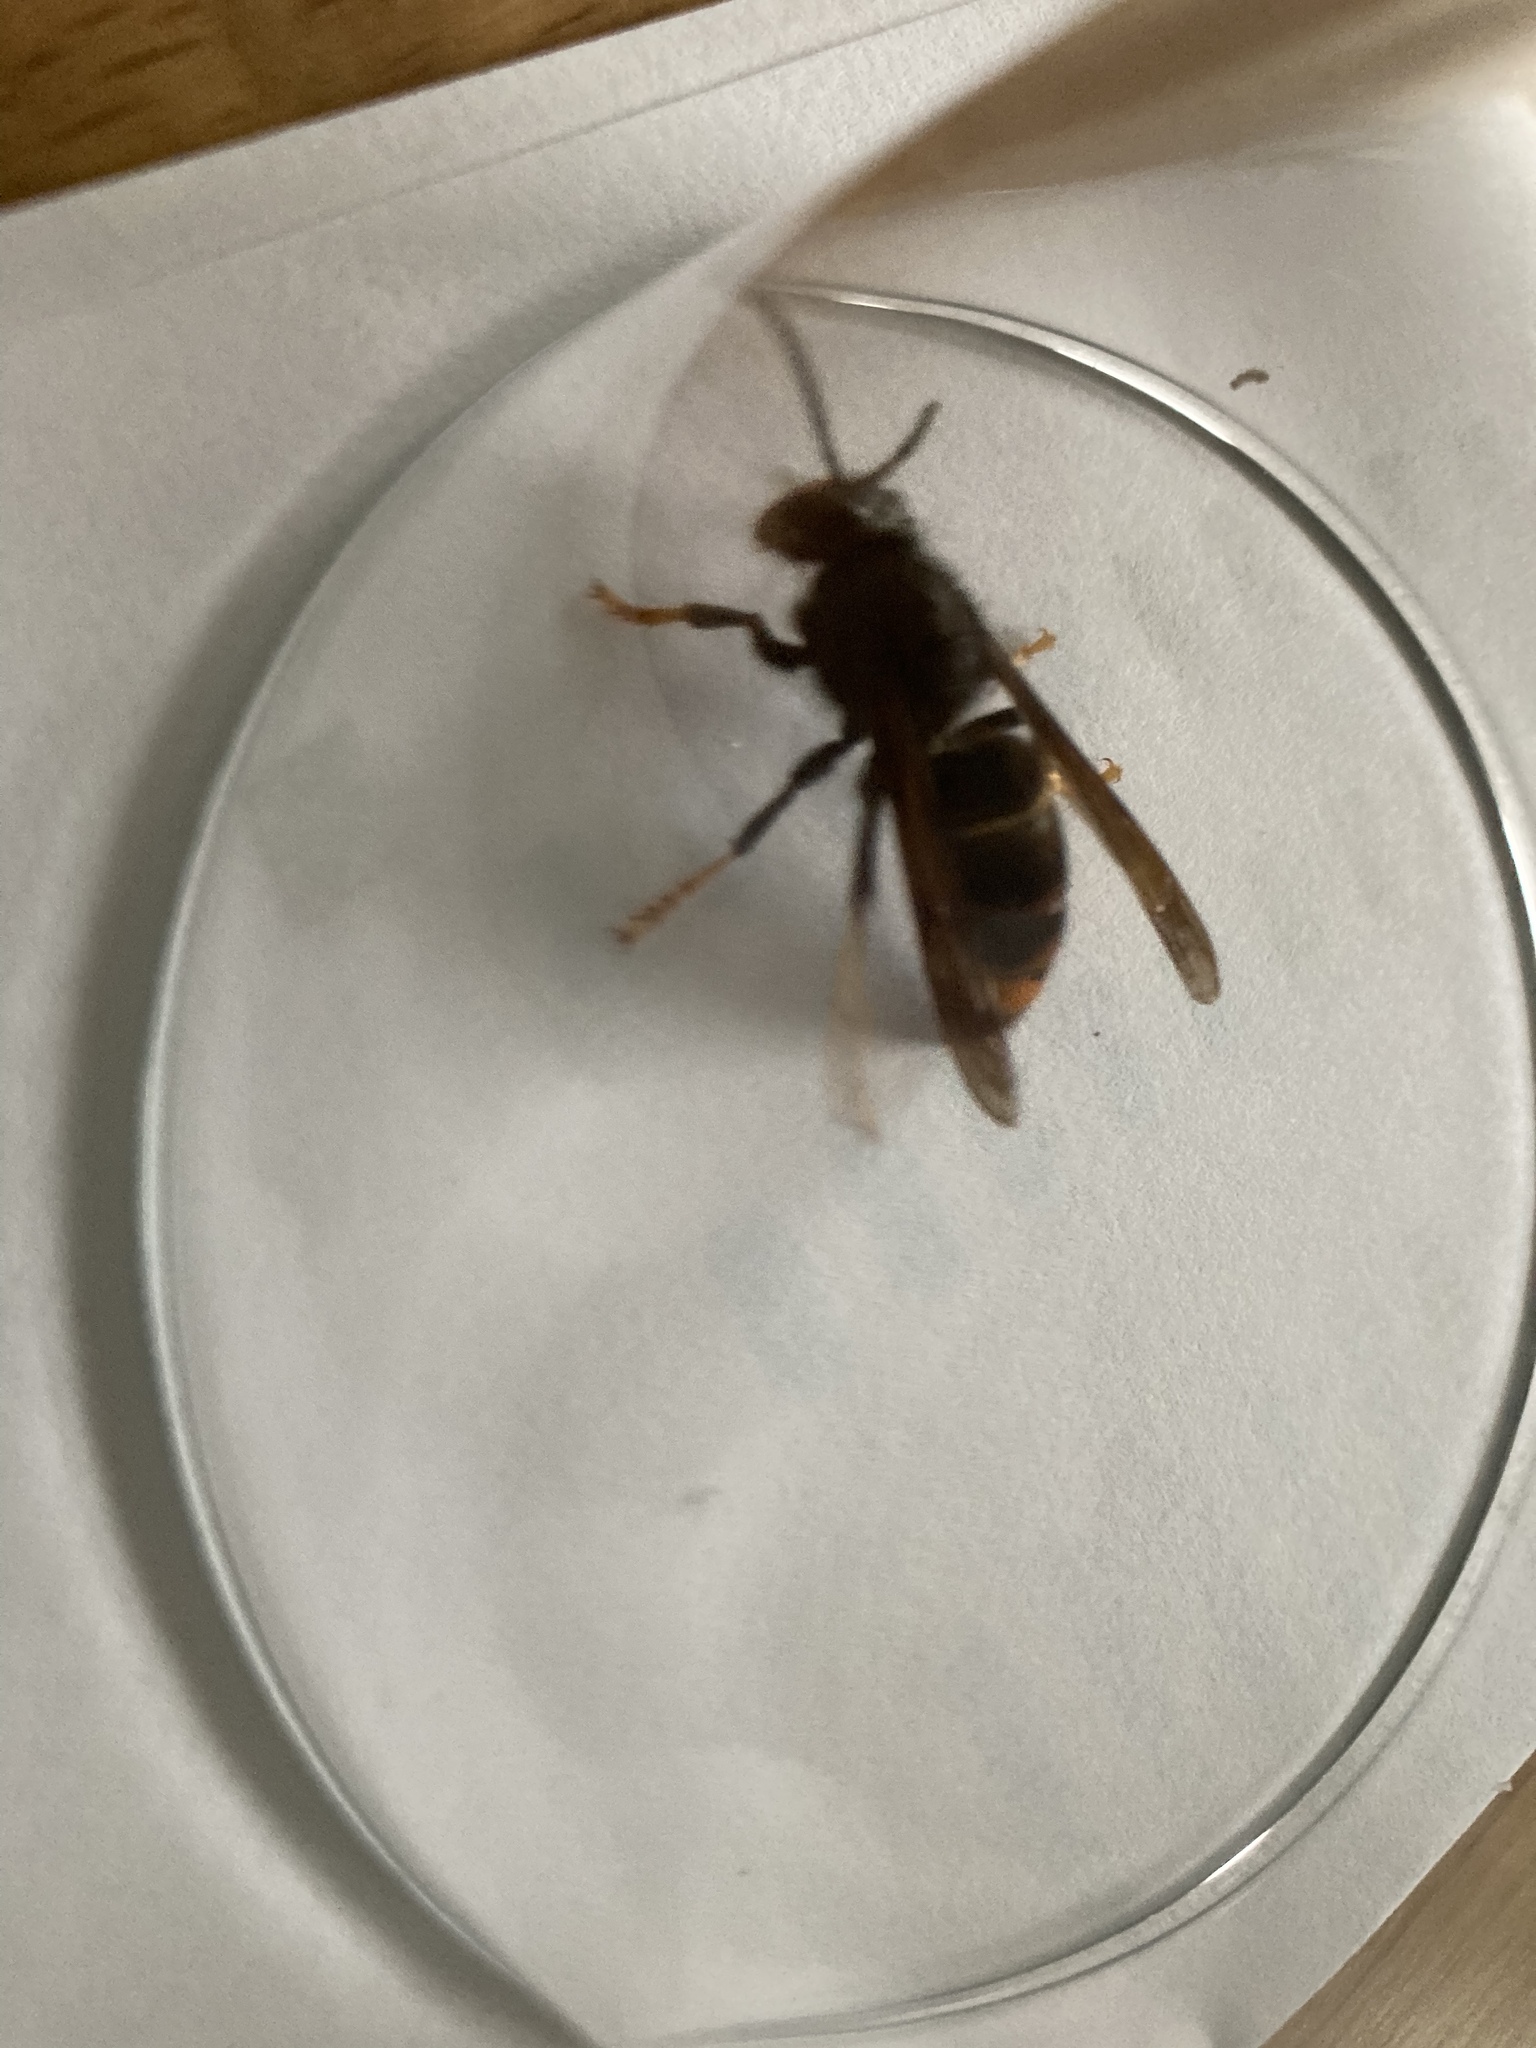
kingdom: Animalia
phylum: Arthropoda
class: Insecta
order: Hymenoptera
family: Vespidae
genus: Vespa
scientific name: Vespa velutina
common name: Asian hornet
